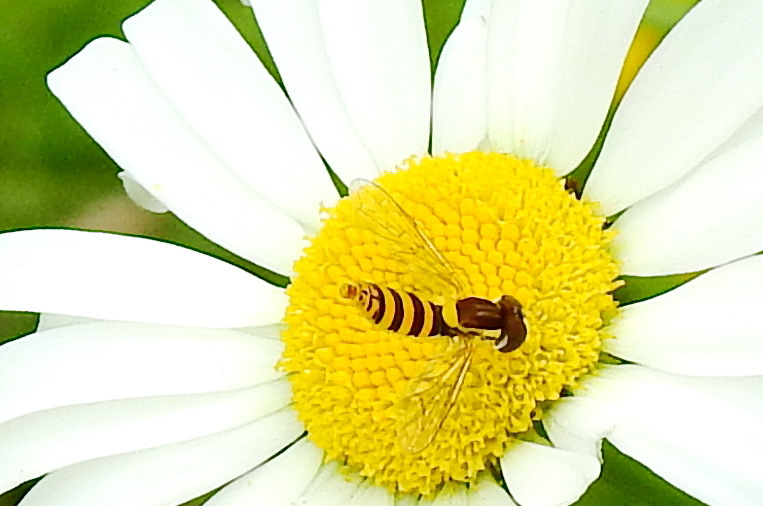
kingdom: Animalia
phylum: Arthropoda
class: Insecta
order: Diptera
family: Syrphidae
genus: Sphaerophoria
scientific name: Sphaerophoria
